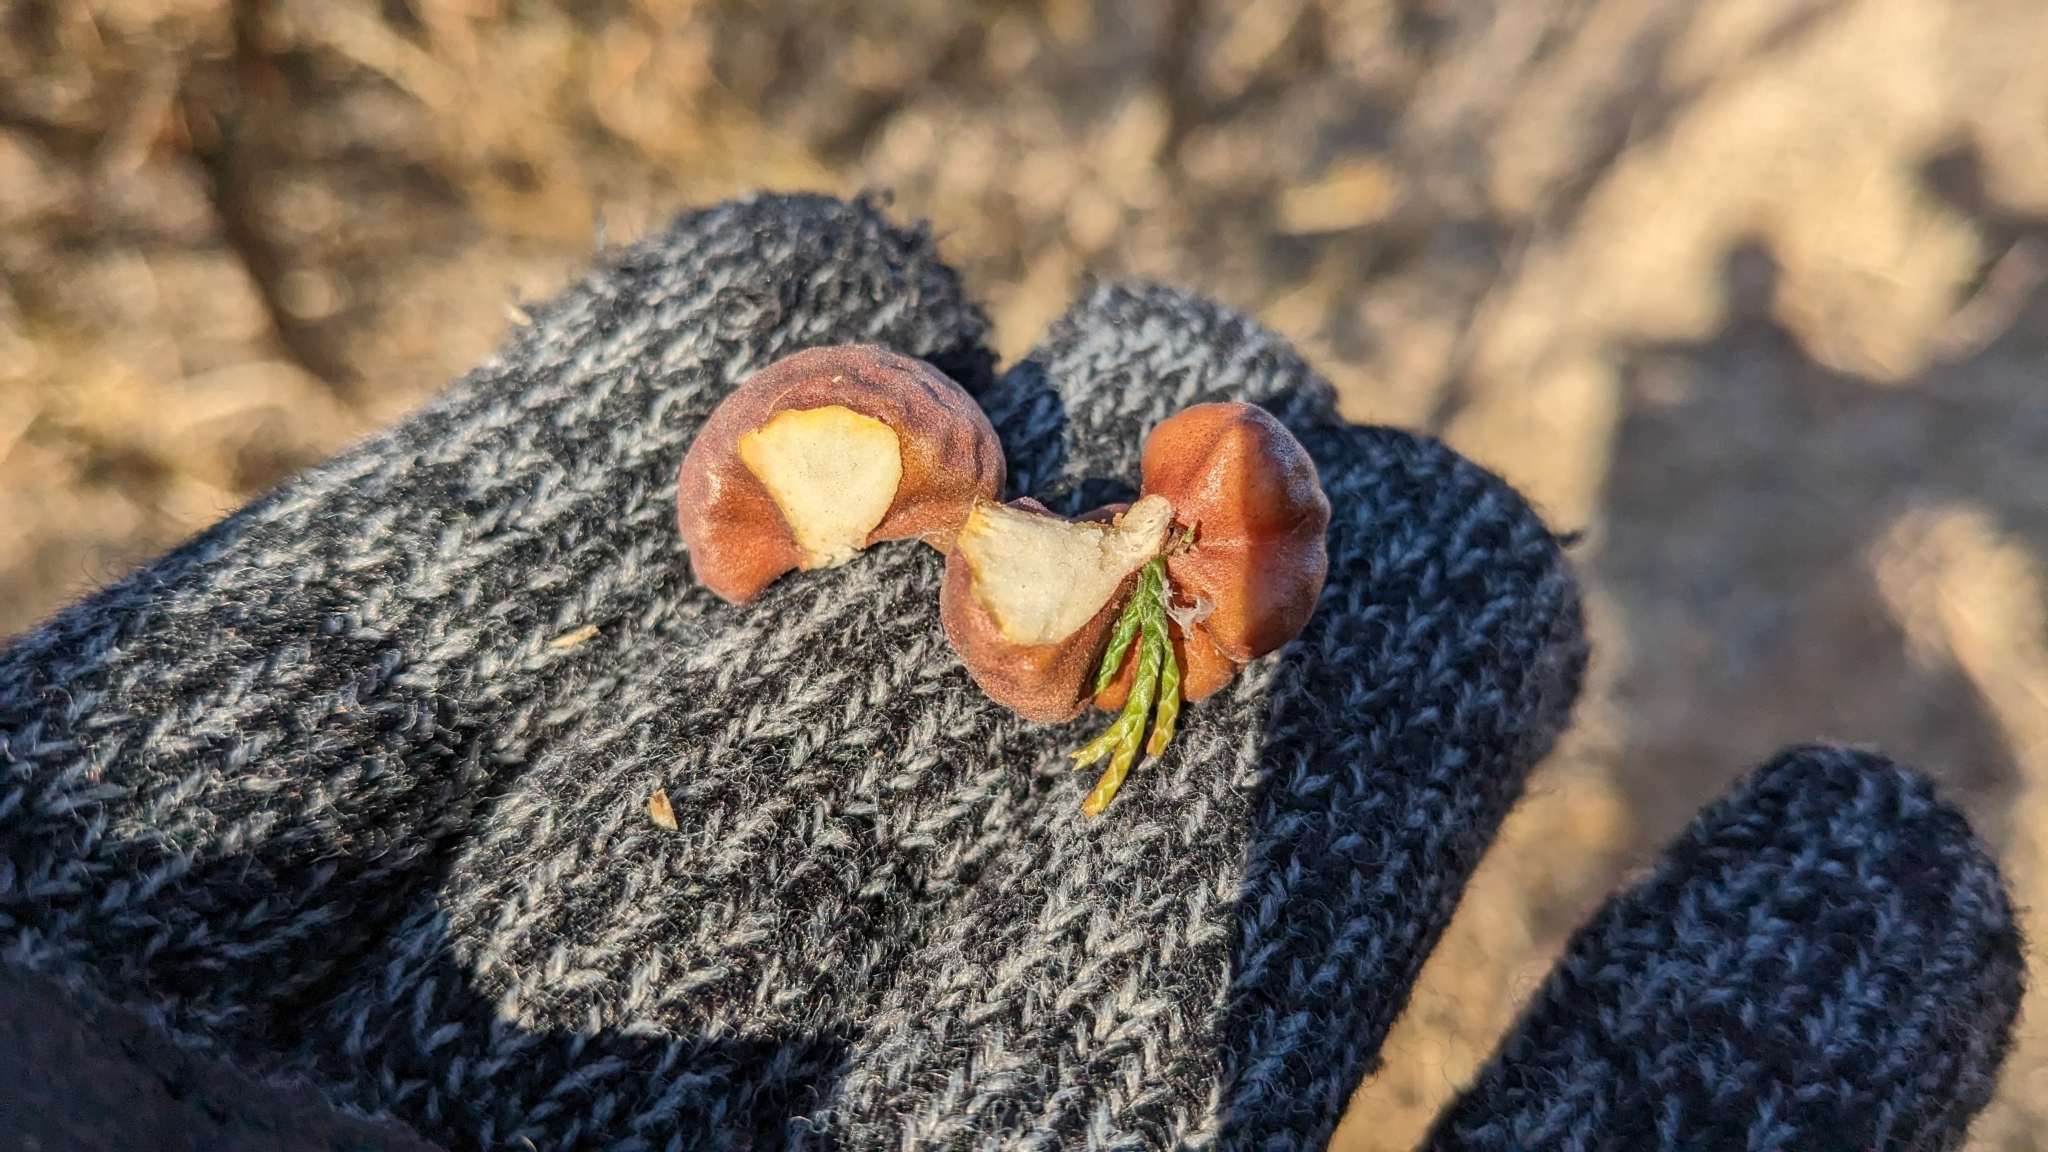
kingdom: Fungi
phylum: Basidiomycota
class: Pucciniomycetes
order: Pucciniales
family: Gymnosporangiaceae
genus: Gymnosporangium
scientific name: Gymnosporangium juniperi-virginianae
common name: Juniper-apple rust
